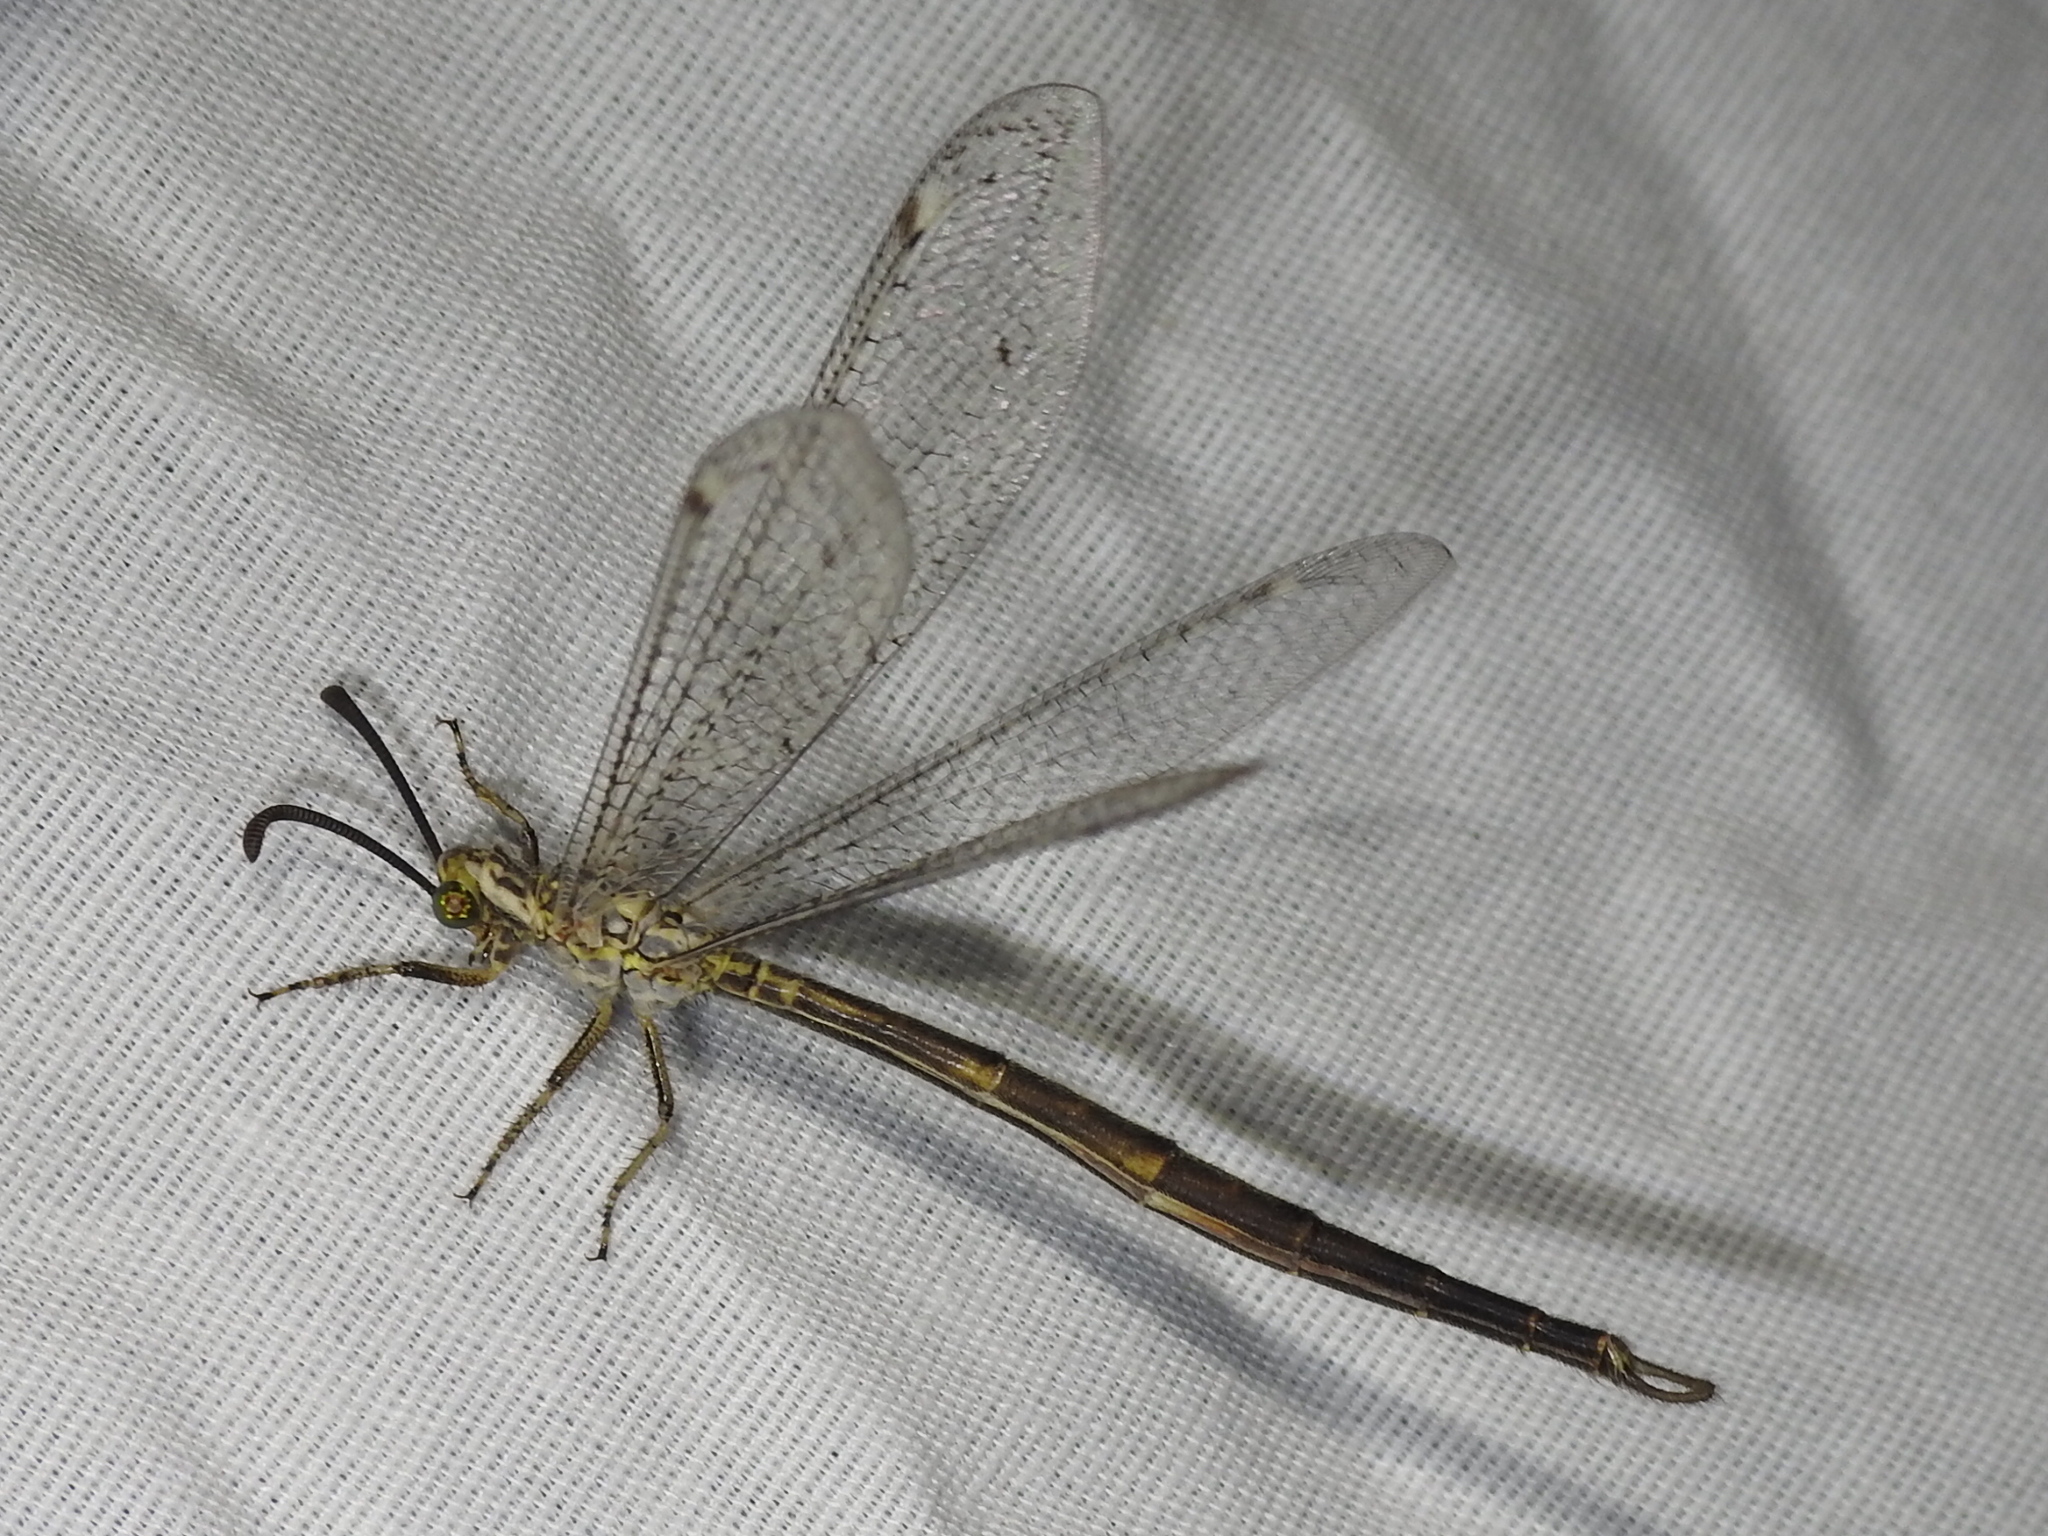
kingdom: Animalia
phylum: Arthropoda
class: Insecta
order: Neuroptera
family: Myrmeleontidae
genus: Scotoleon
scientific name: Scotoleon nigrilabris
